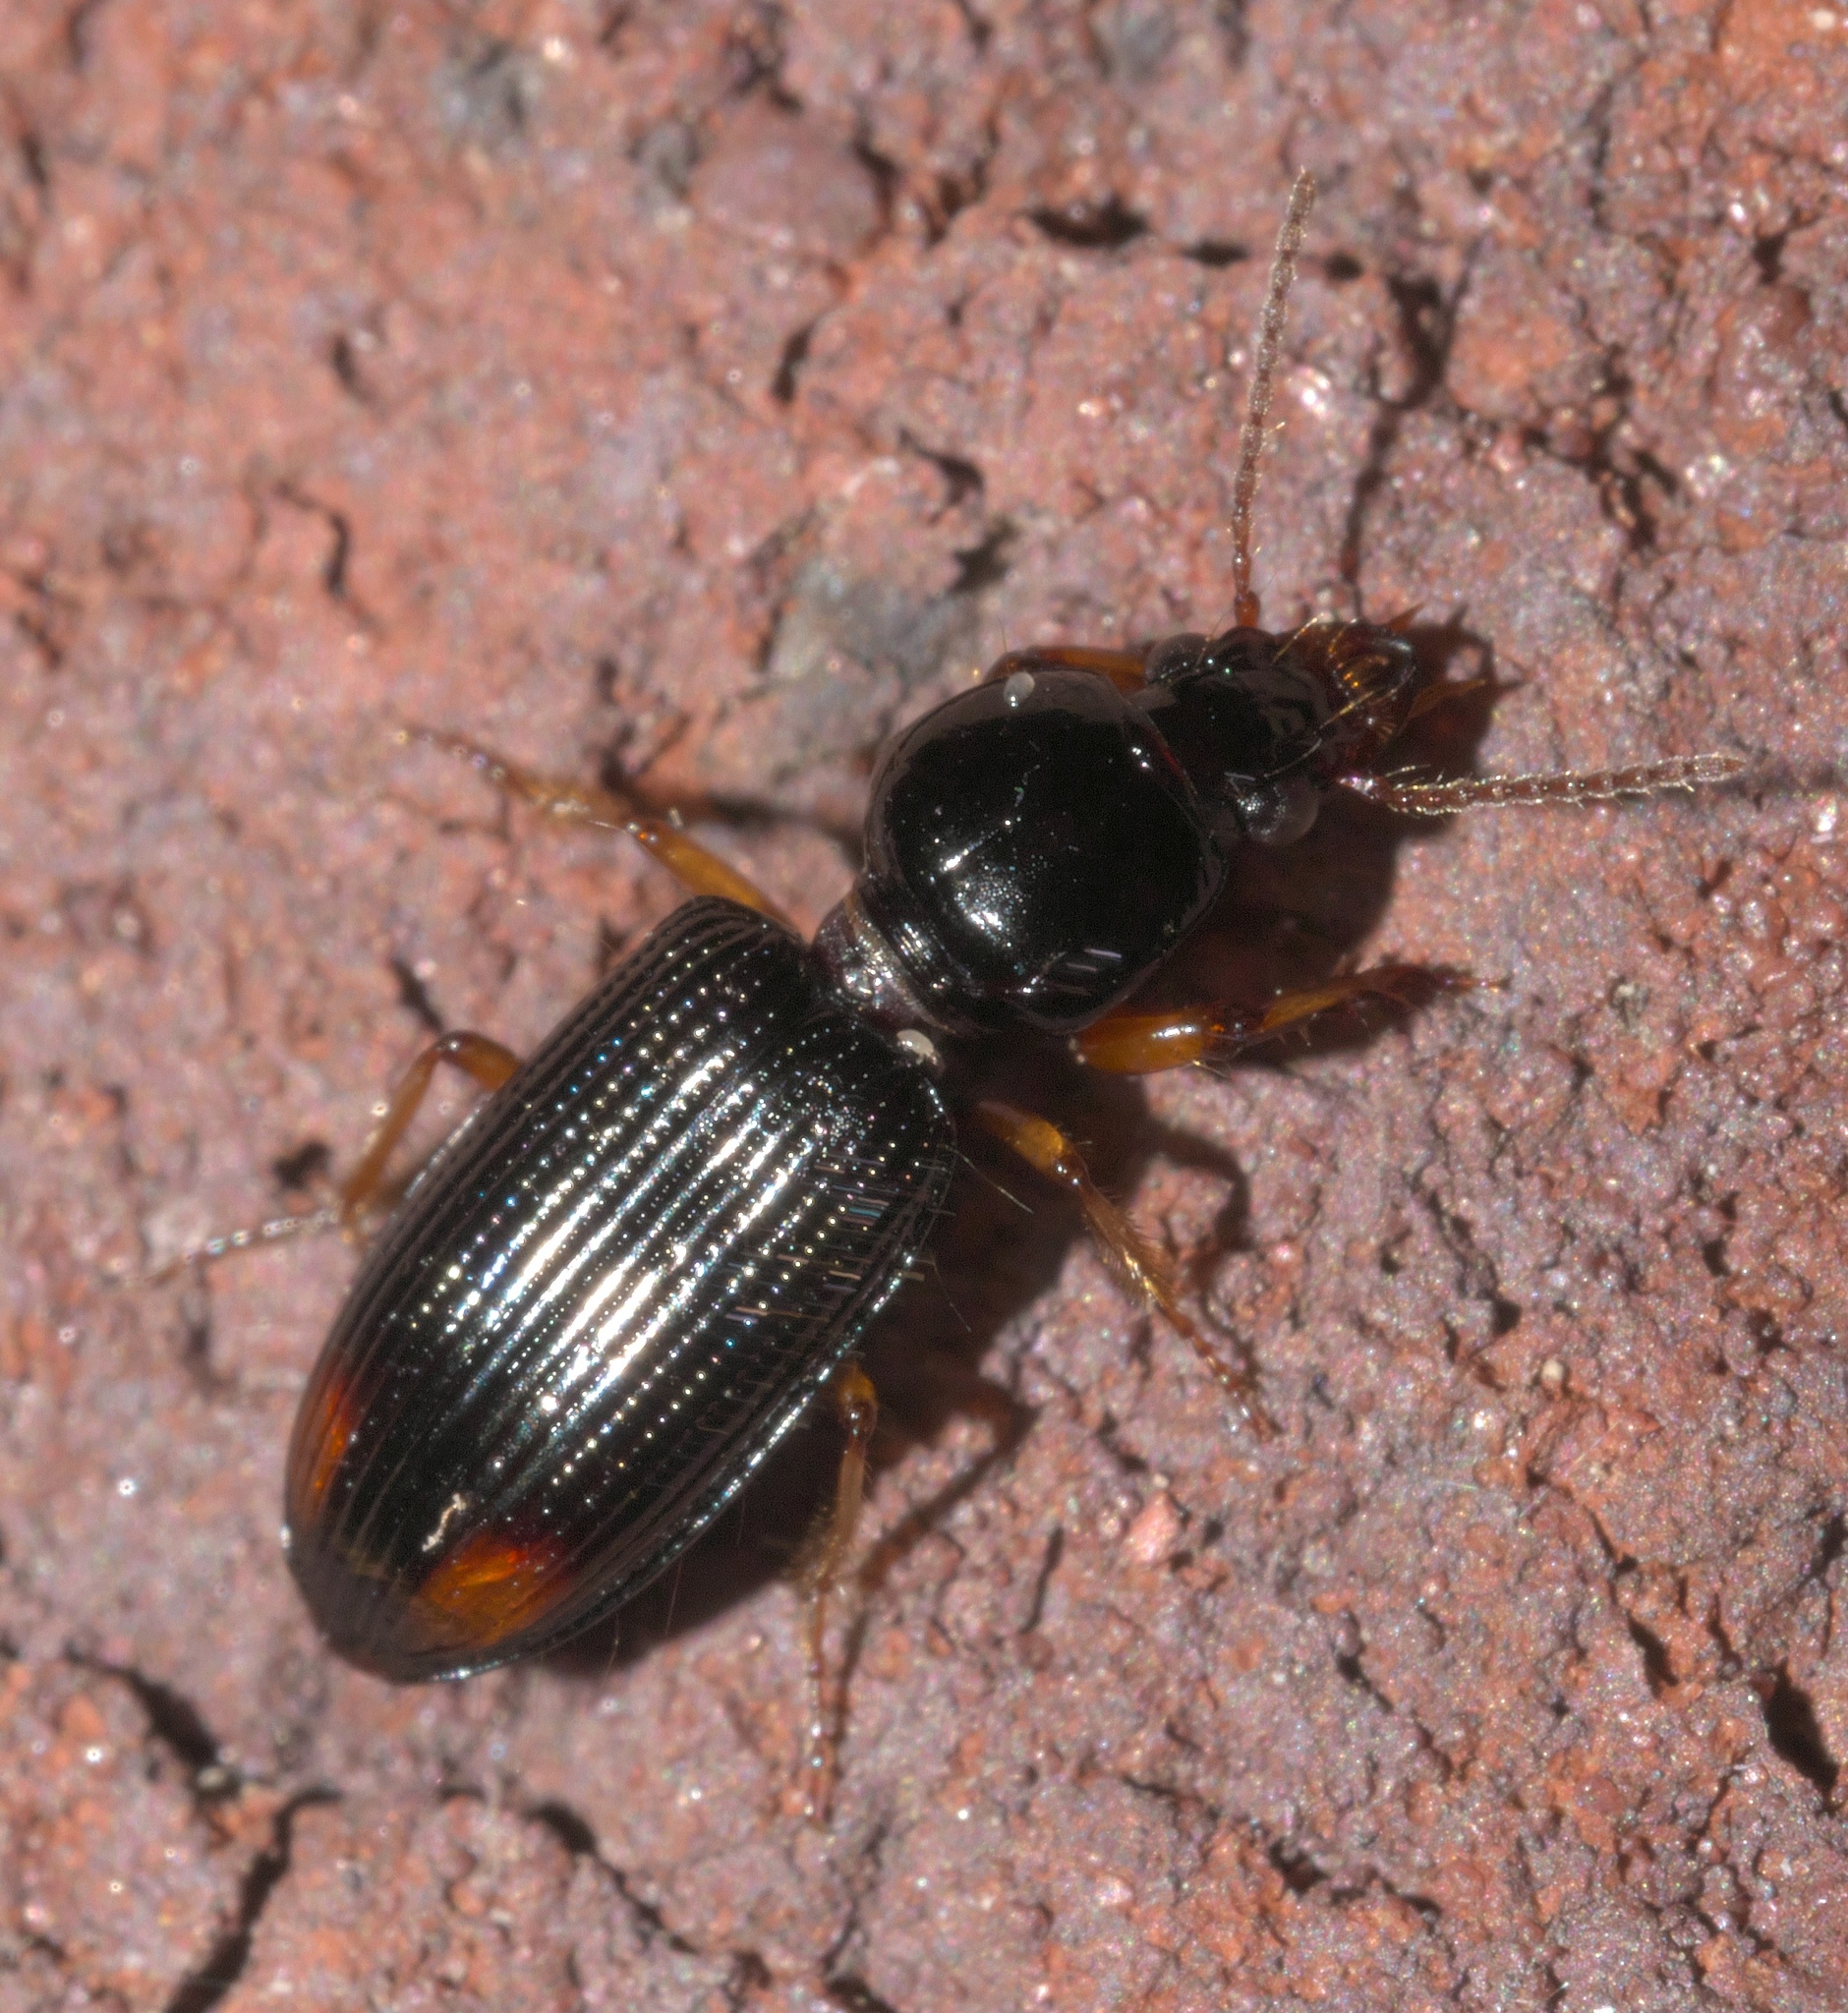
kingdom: Animalia
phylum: Arthropoda
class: Insecta
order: Coleoptera
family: Carabidae
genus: Aspidoglossa
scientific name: Aspidoglossa subangulata
